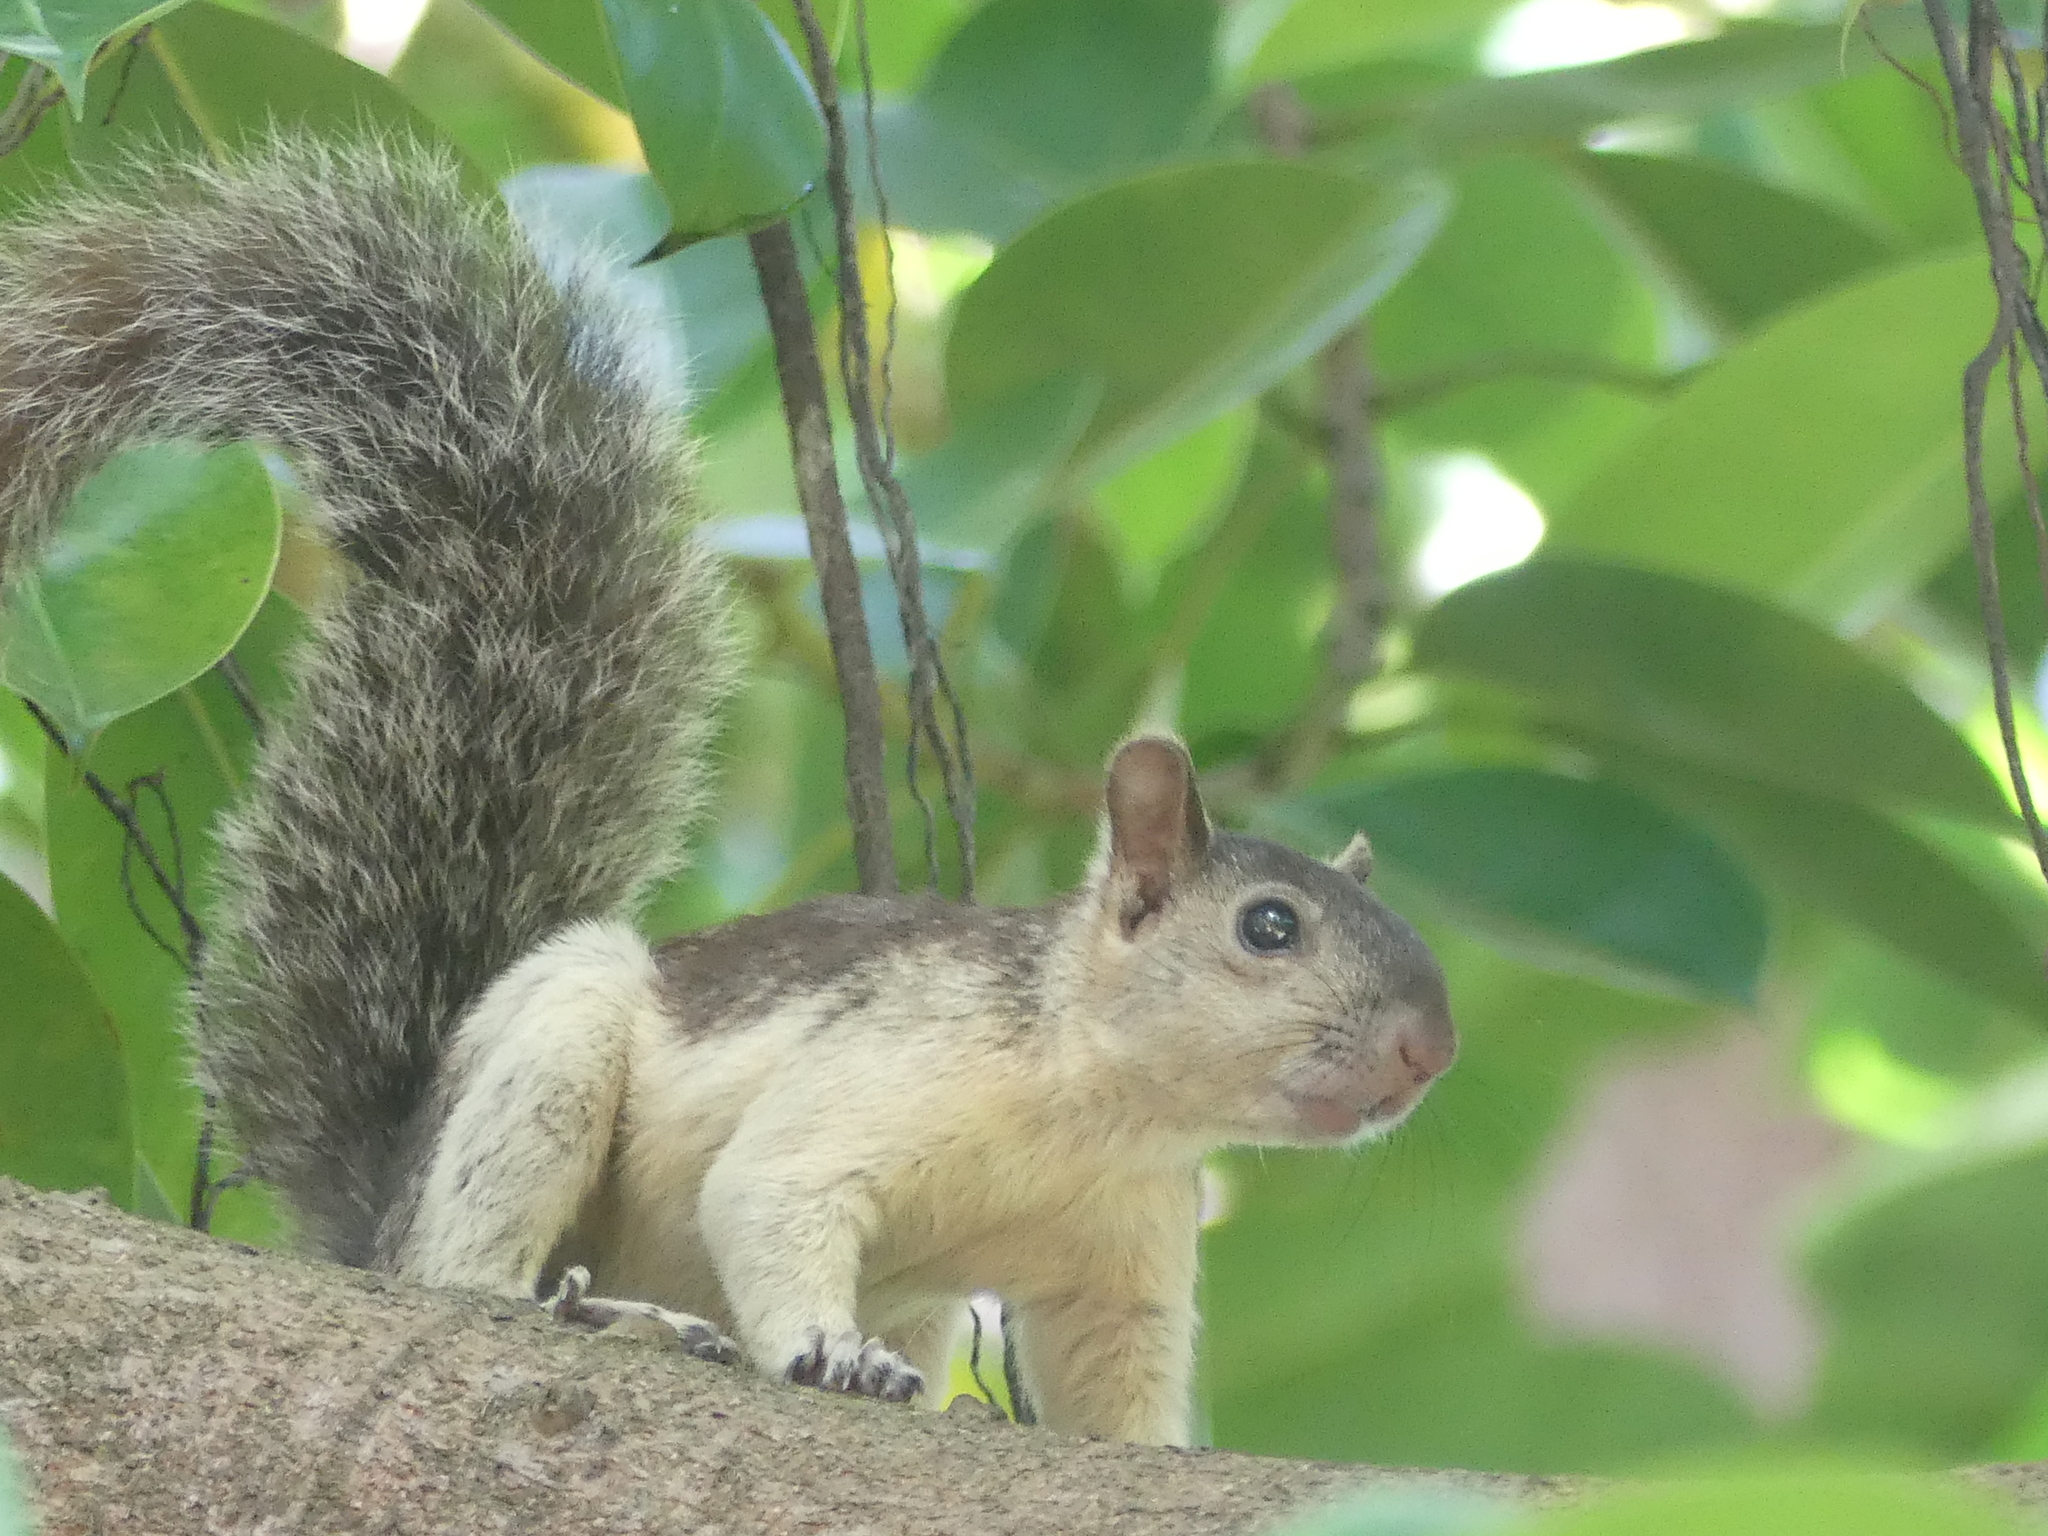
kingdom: Animalia
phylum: Chordata
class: Mammalia
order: Rodentia
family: Sciuridae
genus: Sciurus
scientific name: Sciurus variegatoides
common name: Variegated squirrel
